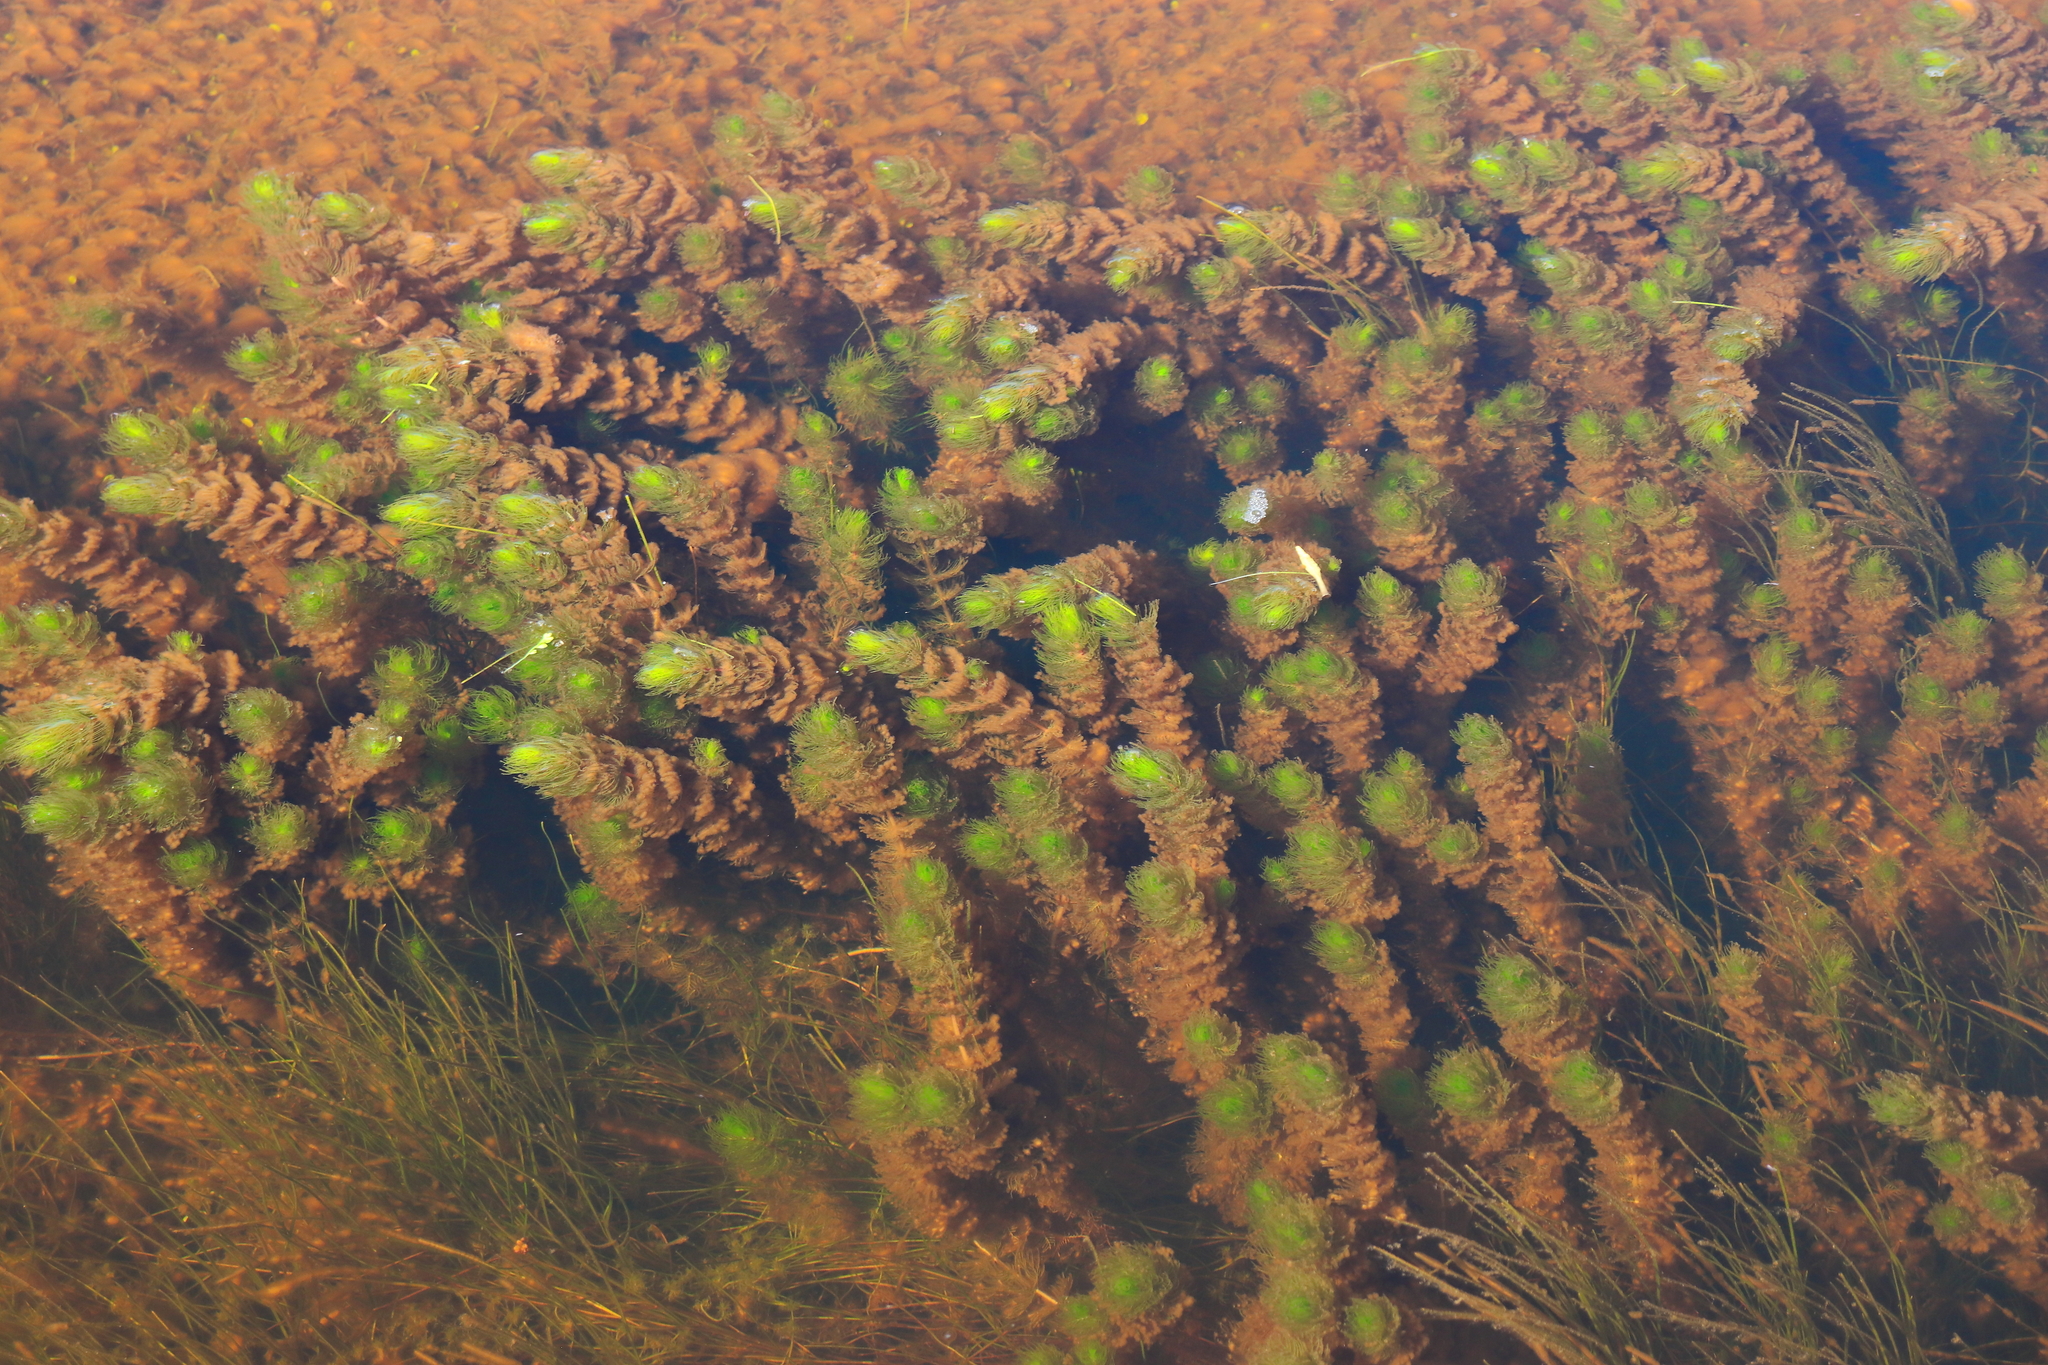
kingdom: Plantae
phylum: Tracheophyta
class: Magnoliopsida
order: Saxifragales
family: Haloragaceae
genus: Myriophyllum
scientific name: Myriophyllum quitense
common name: Andean water milfoil
